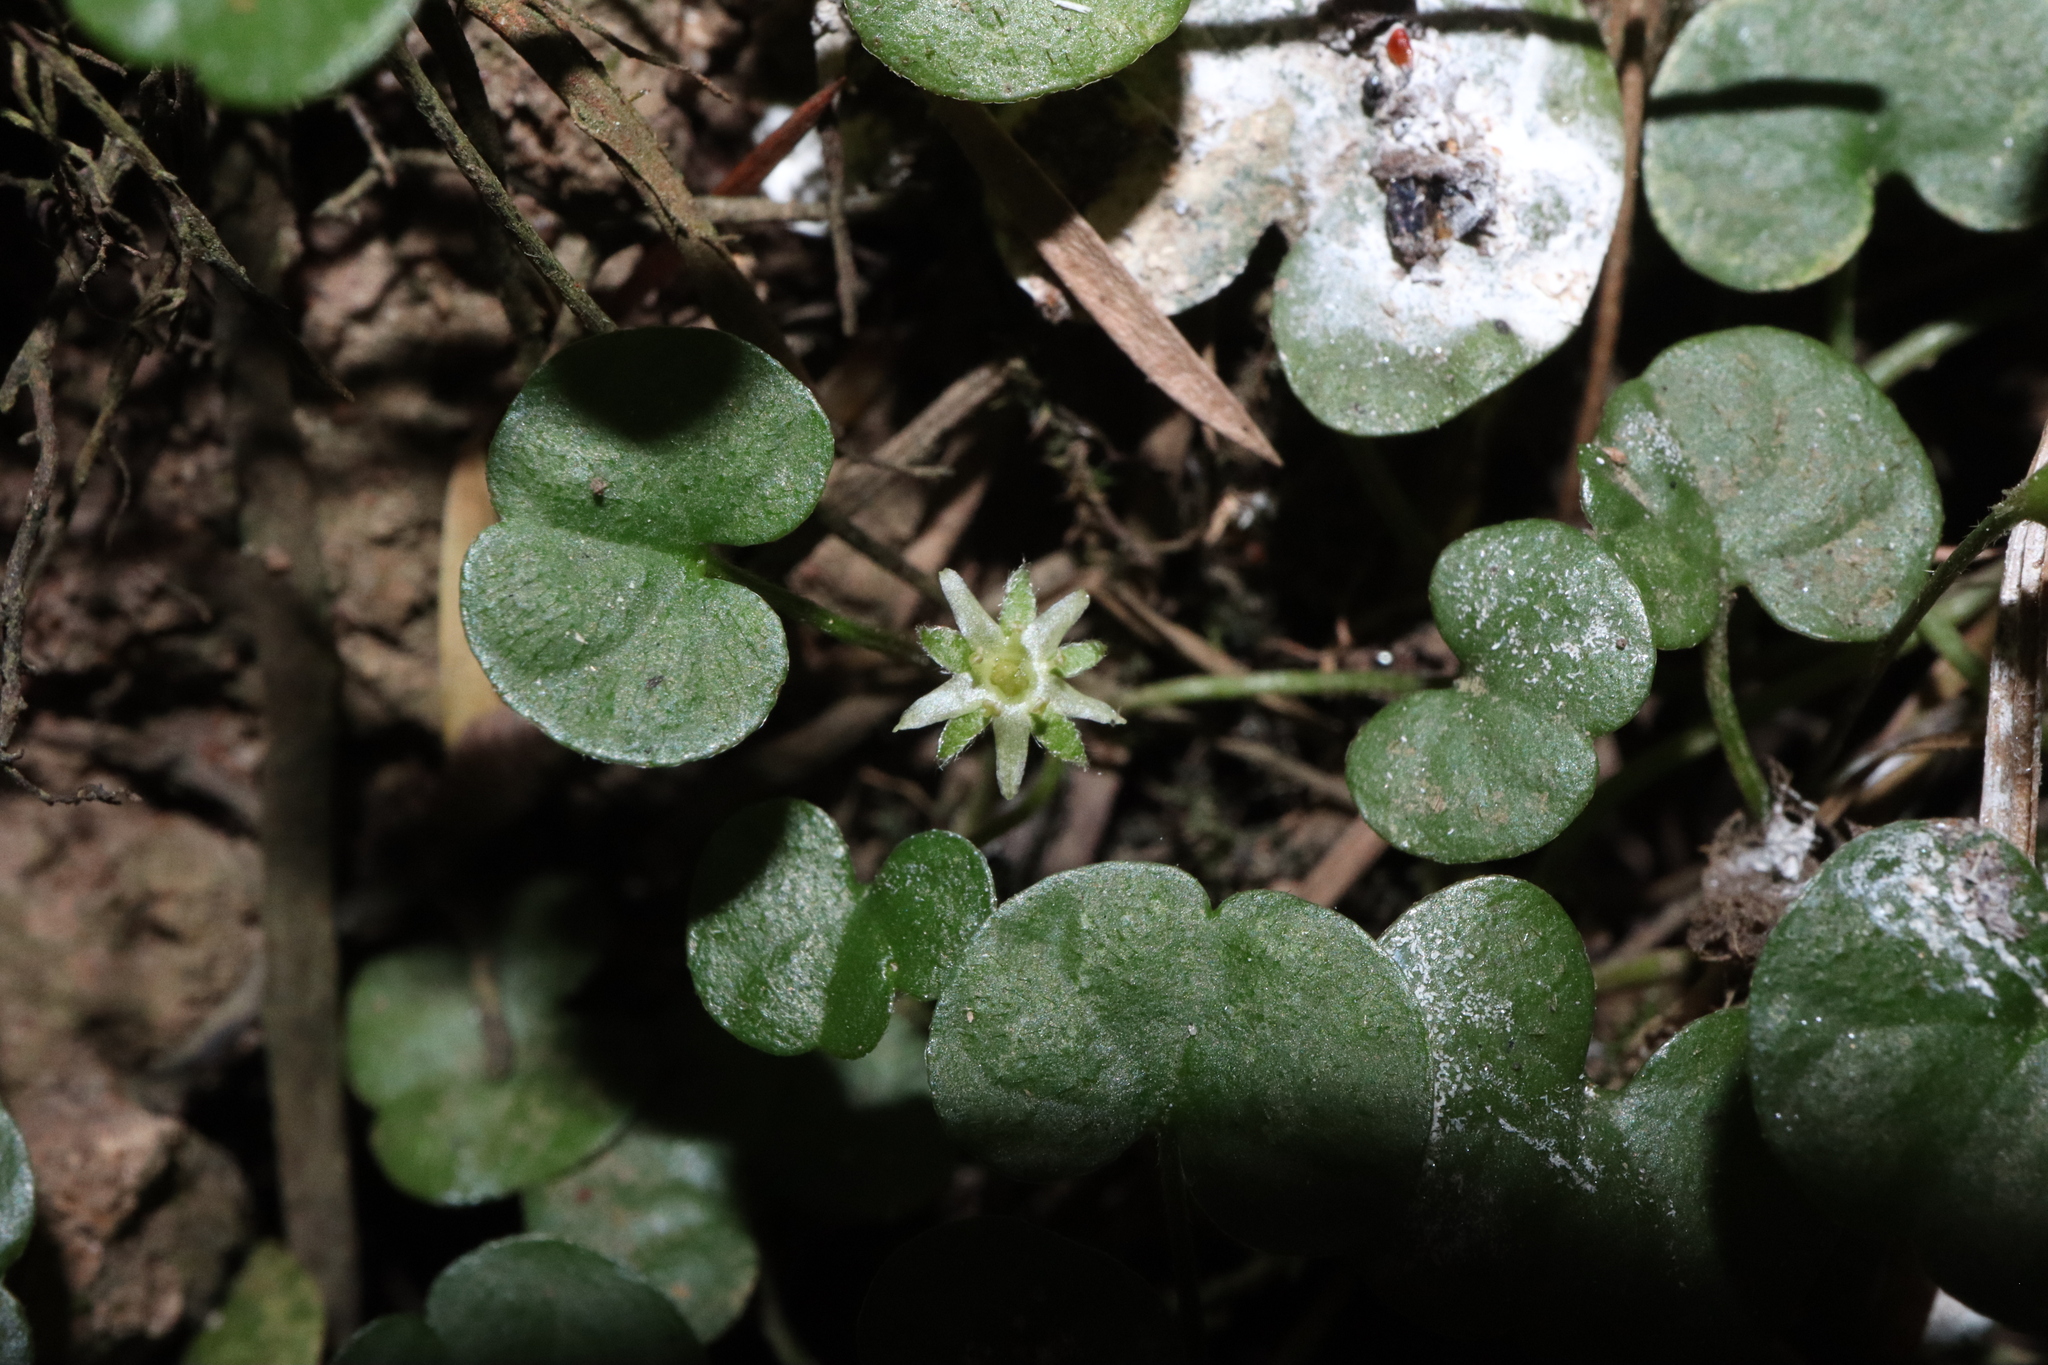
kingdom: Plantae
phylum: Tracheophyta
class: Magnoliopsida
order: Solanales
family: Convolvulaceae
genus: Dichondra
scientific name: Dichondra repens
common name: Kidneyweed
